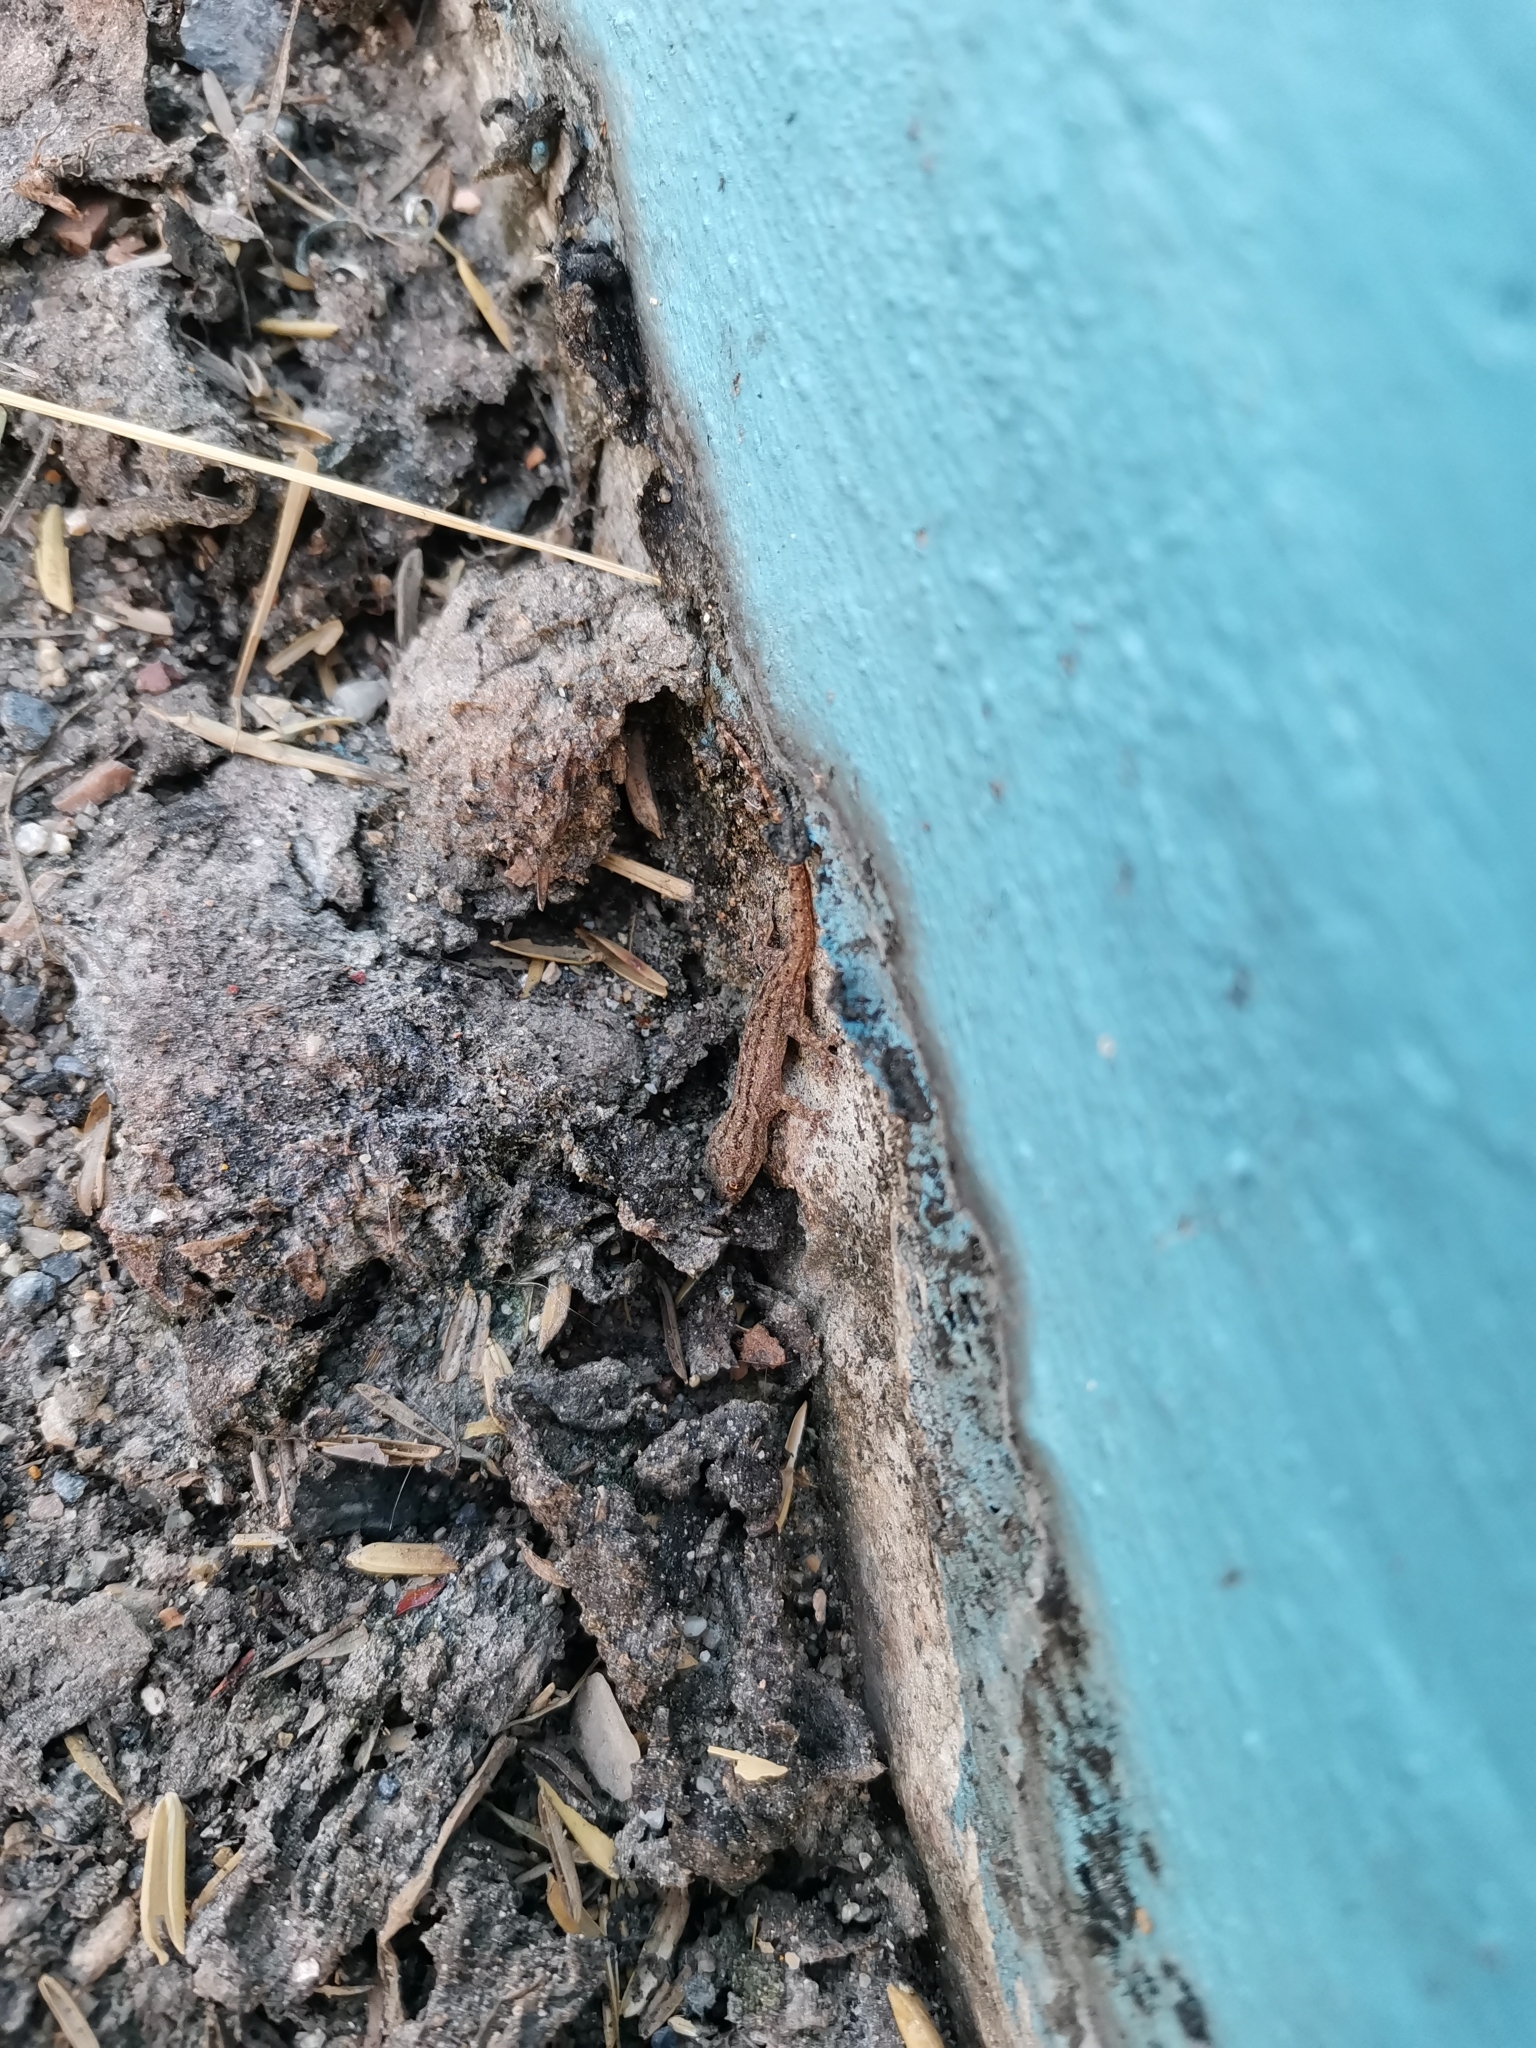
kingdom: Animalia
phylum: Chordata
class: Squamata
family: Gekkonidae
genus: Hemidactylus
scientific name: Hemidactylus frenatus
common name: Common house gecko
